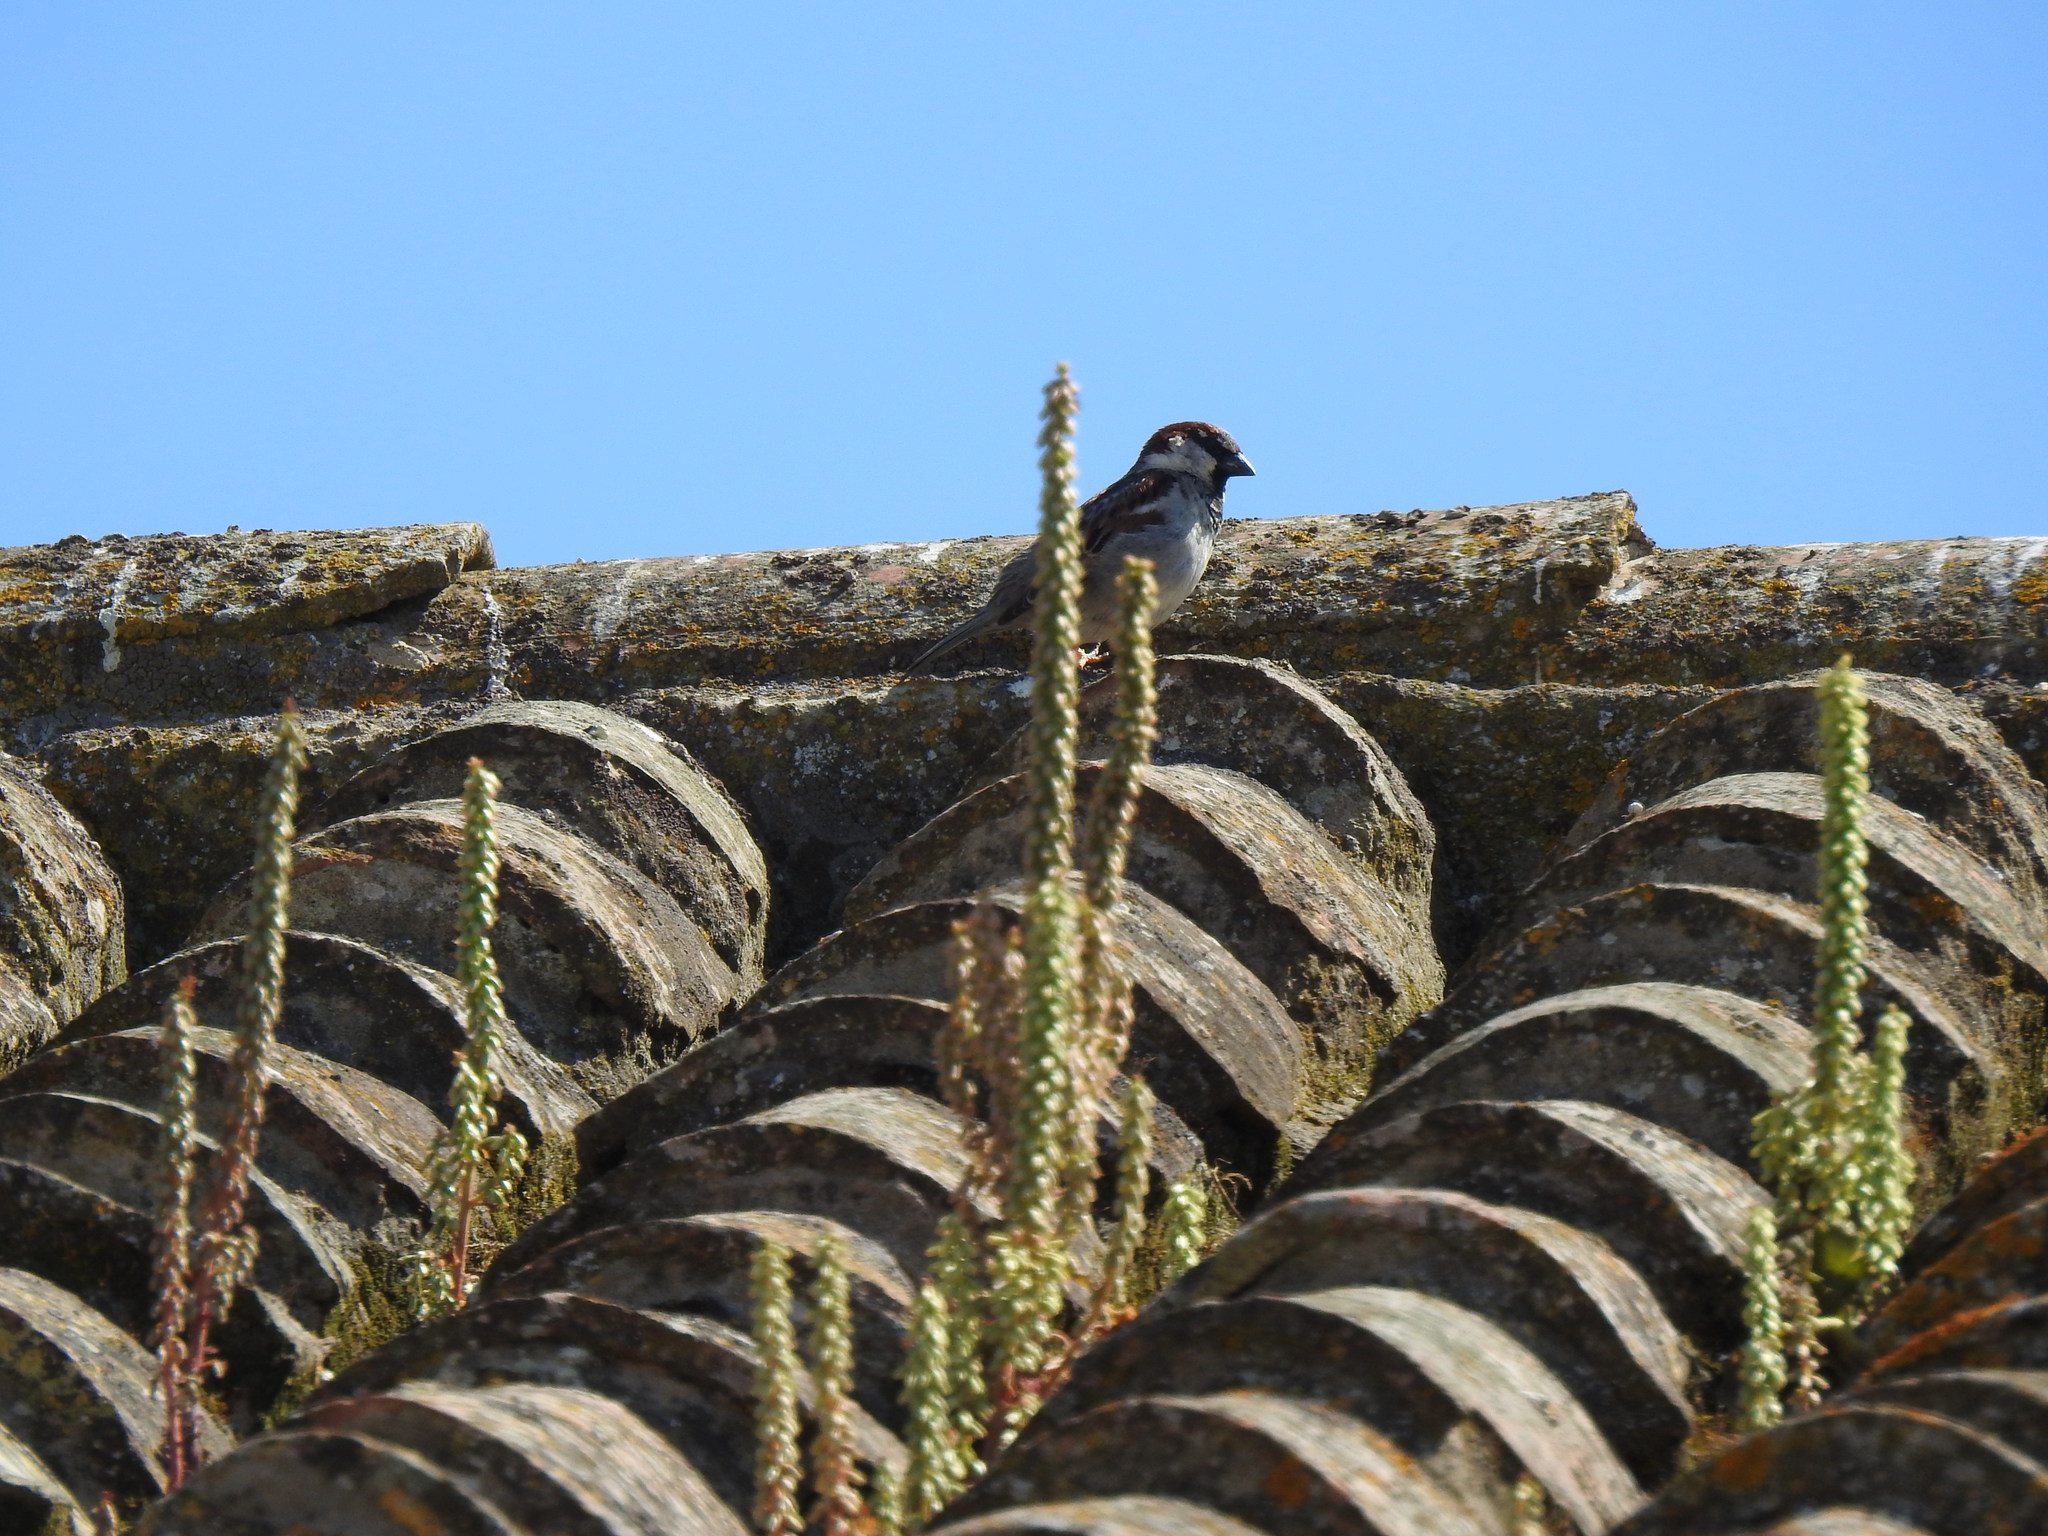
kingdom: Animalia
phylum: Chordata
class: Aves
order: Passeriformes
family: Passeridae
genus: Passer
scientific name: Passer domesticus
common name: House sparrow
